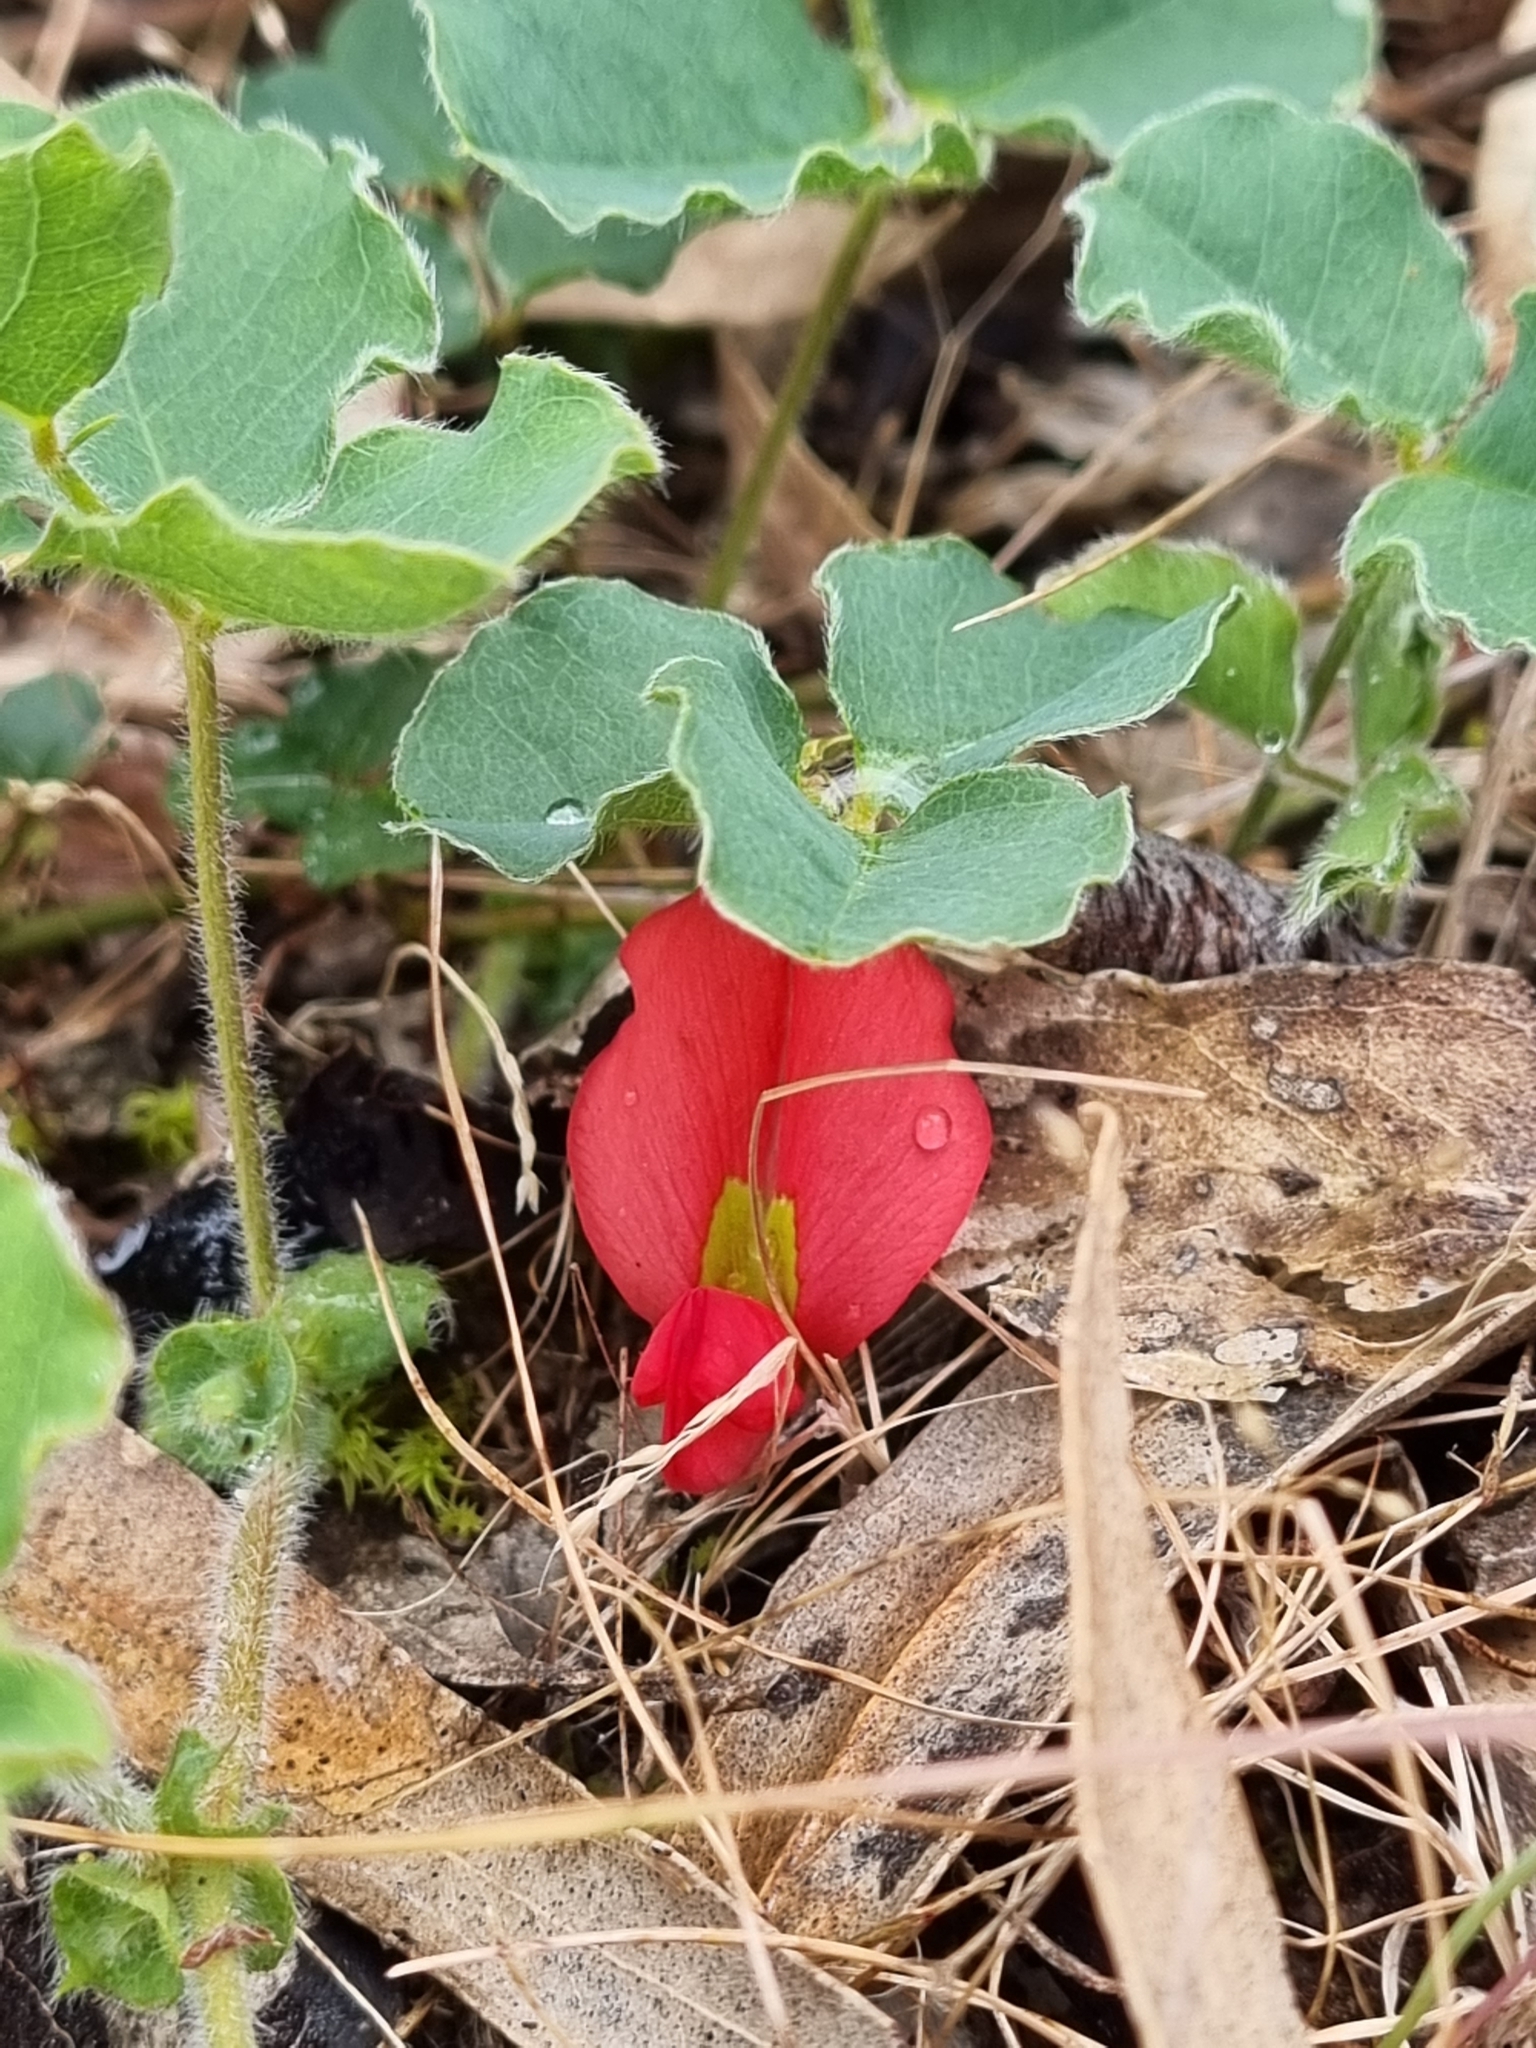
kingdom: Plantae
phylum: Tracheophyta
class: Magnoliopsida
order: Fabales
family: Fabaceae
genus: Kennedia
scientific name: Kennedia prostrata
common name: Running-postman
